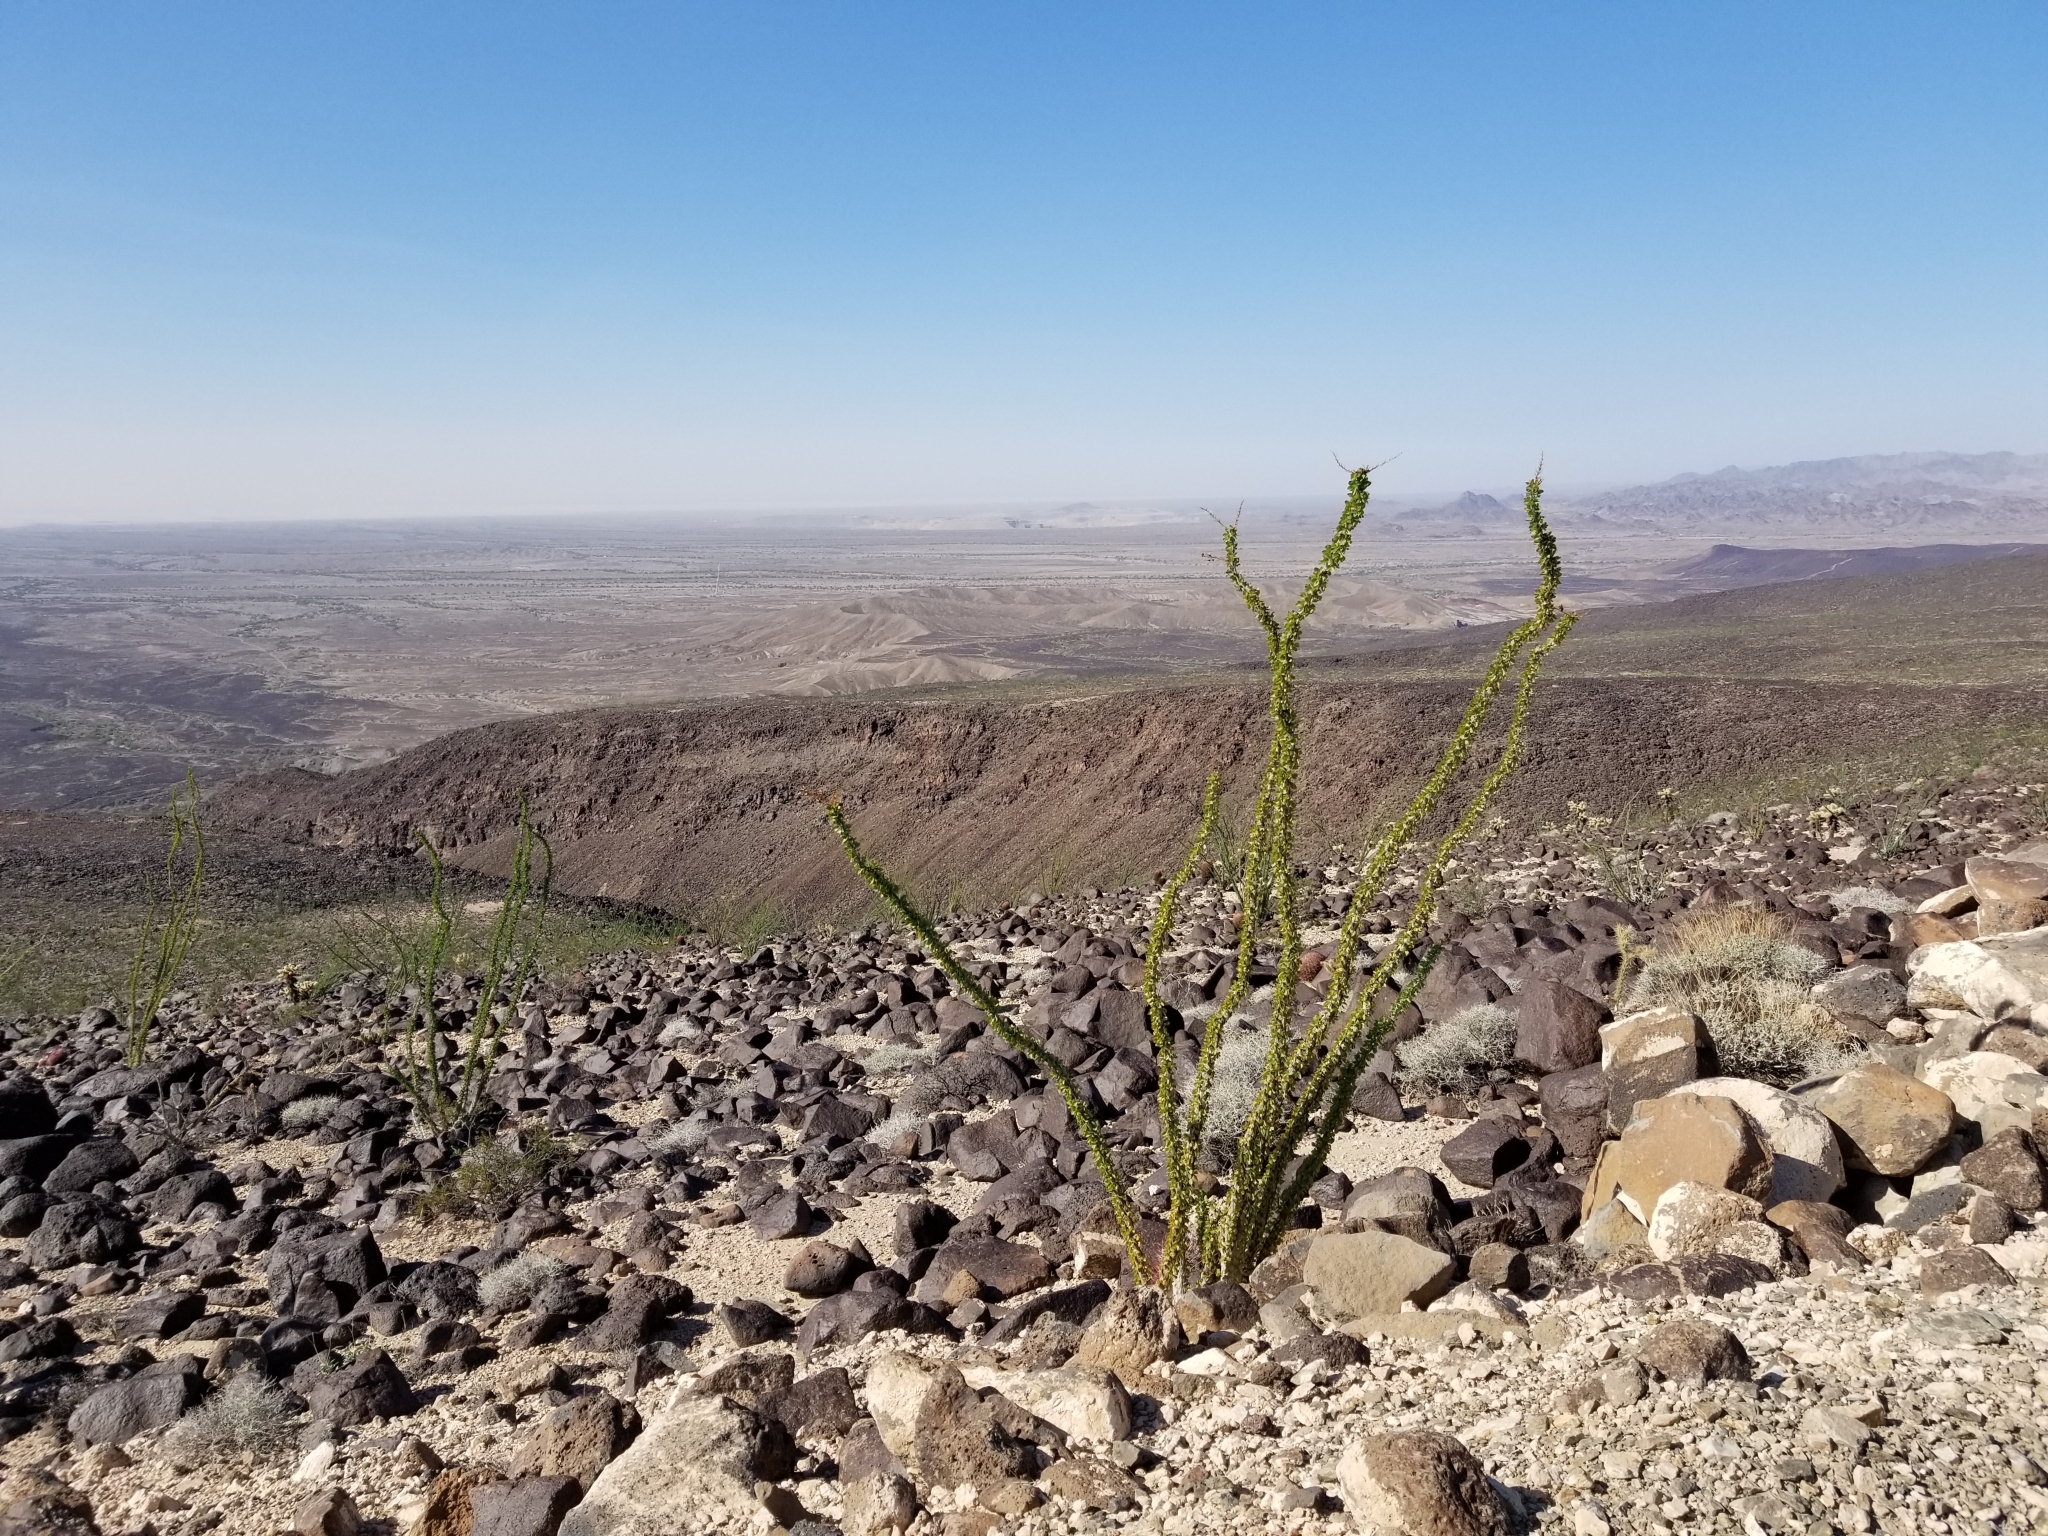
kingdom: Plantae
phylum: Tracheophyta
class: Magnoliopsida
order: Ericales
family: Fouquieriaceae
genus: Fouquieria
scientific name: Fouquieria splendens
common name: Vine-cactus
